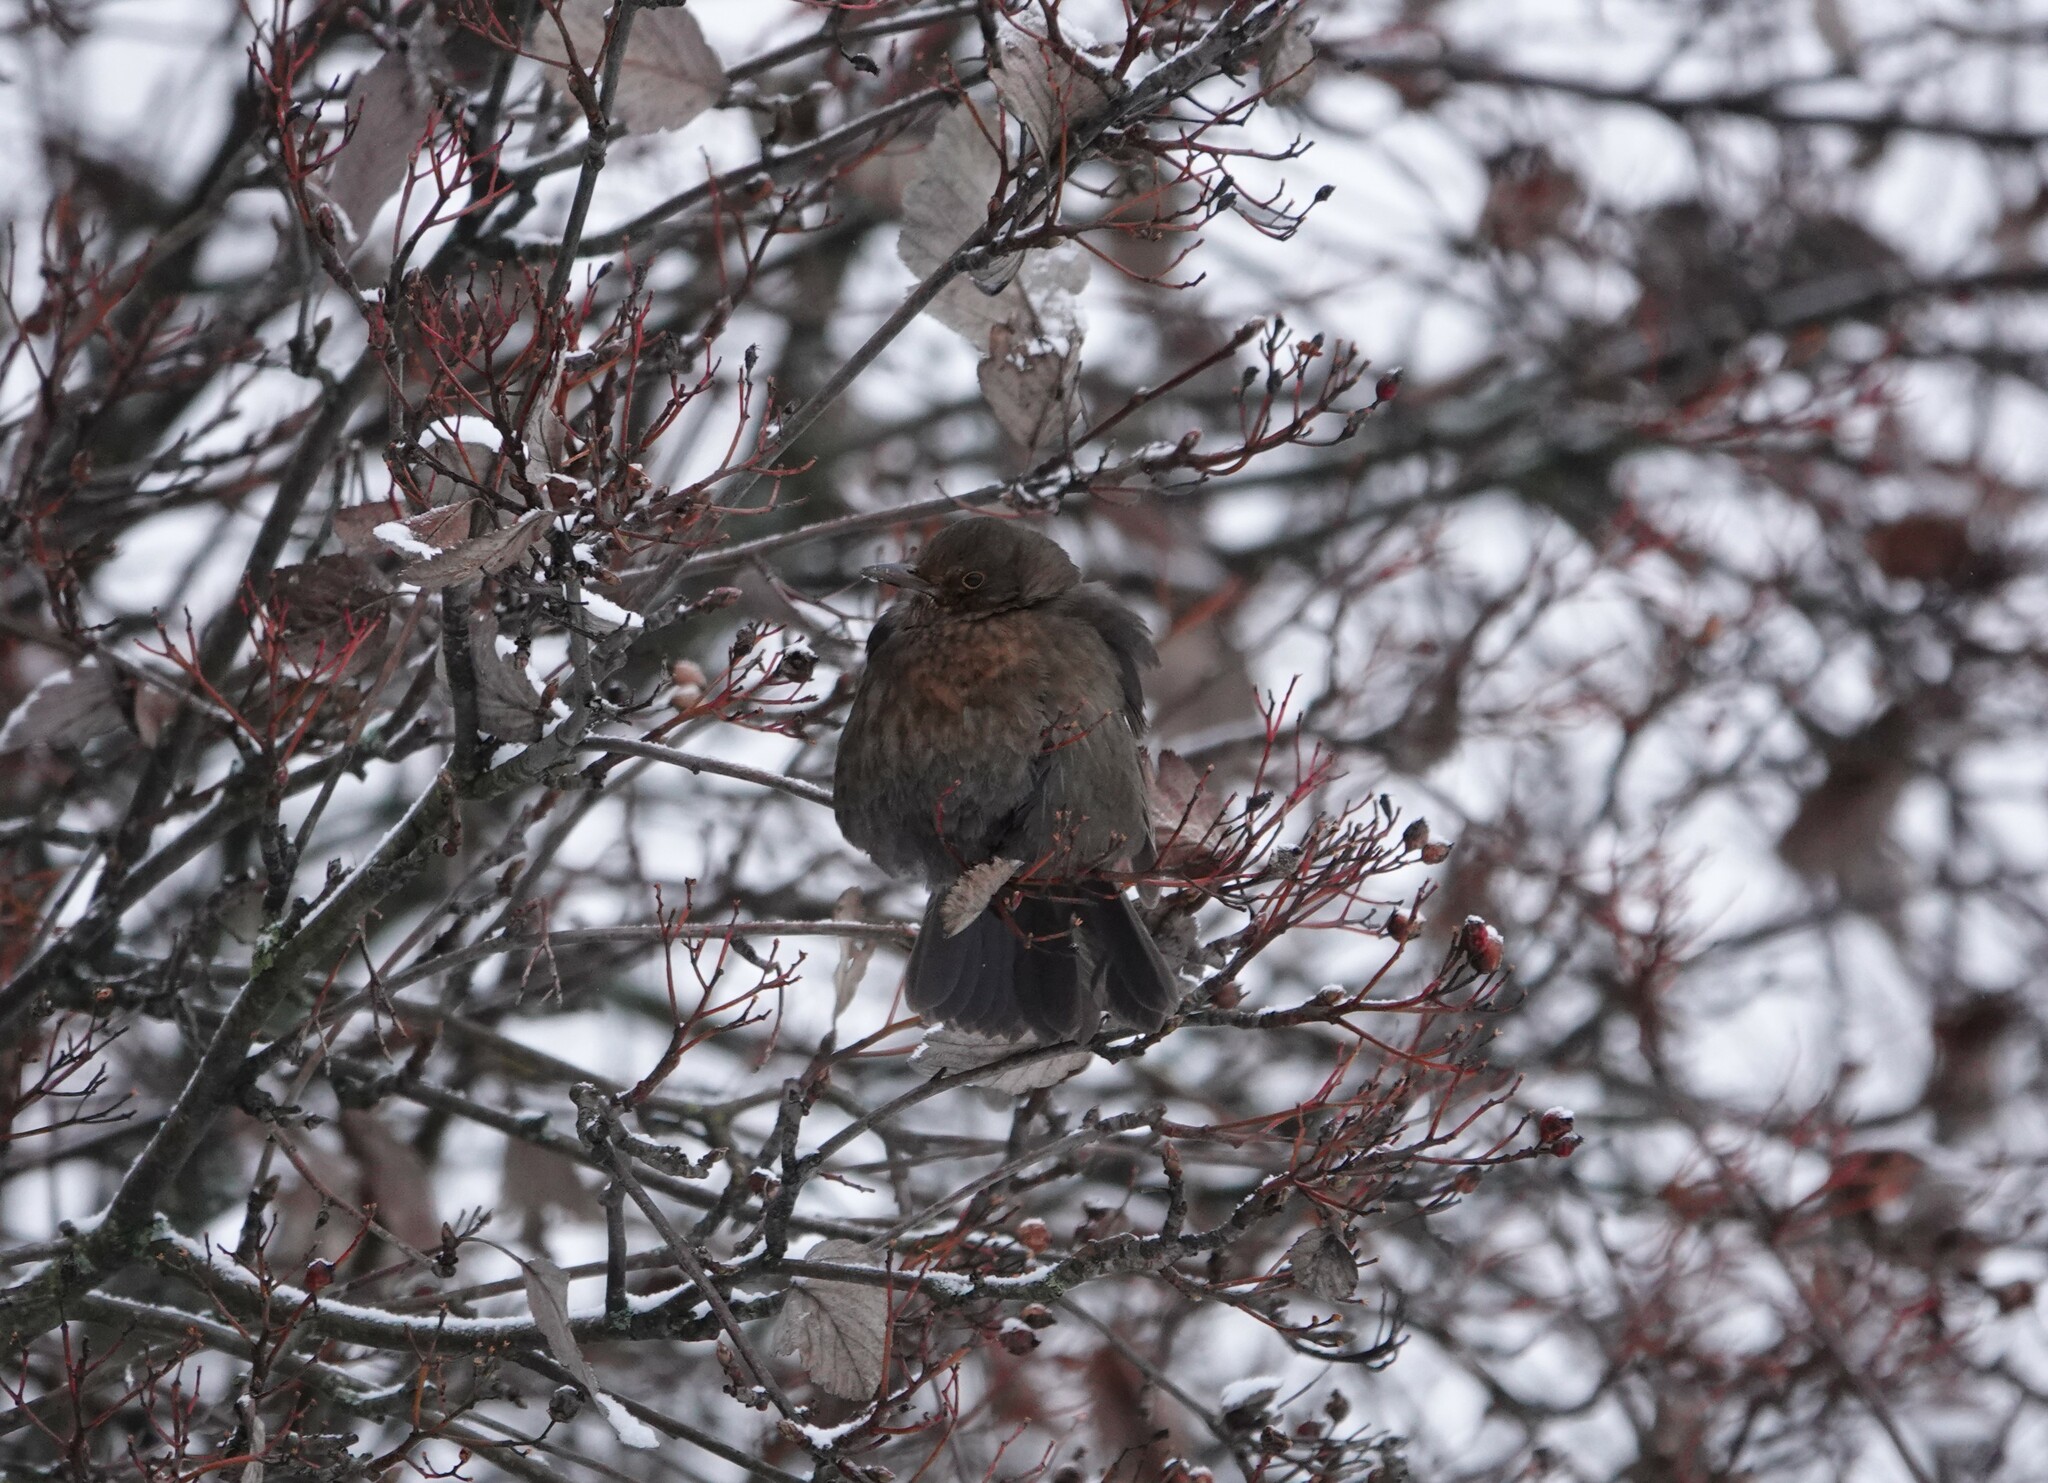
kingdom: Animalia
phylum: Chordata
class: Aves
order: Passeriformes
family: Turdidae
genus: Turdus
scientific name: Turdus merula
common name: Common blackbird
